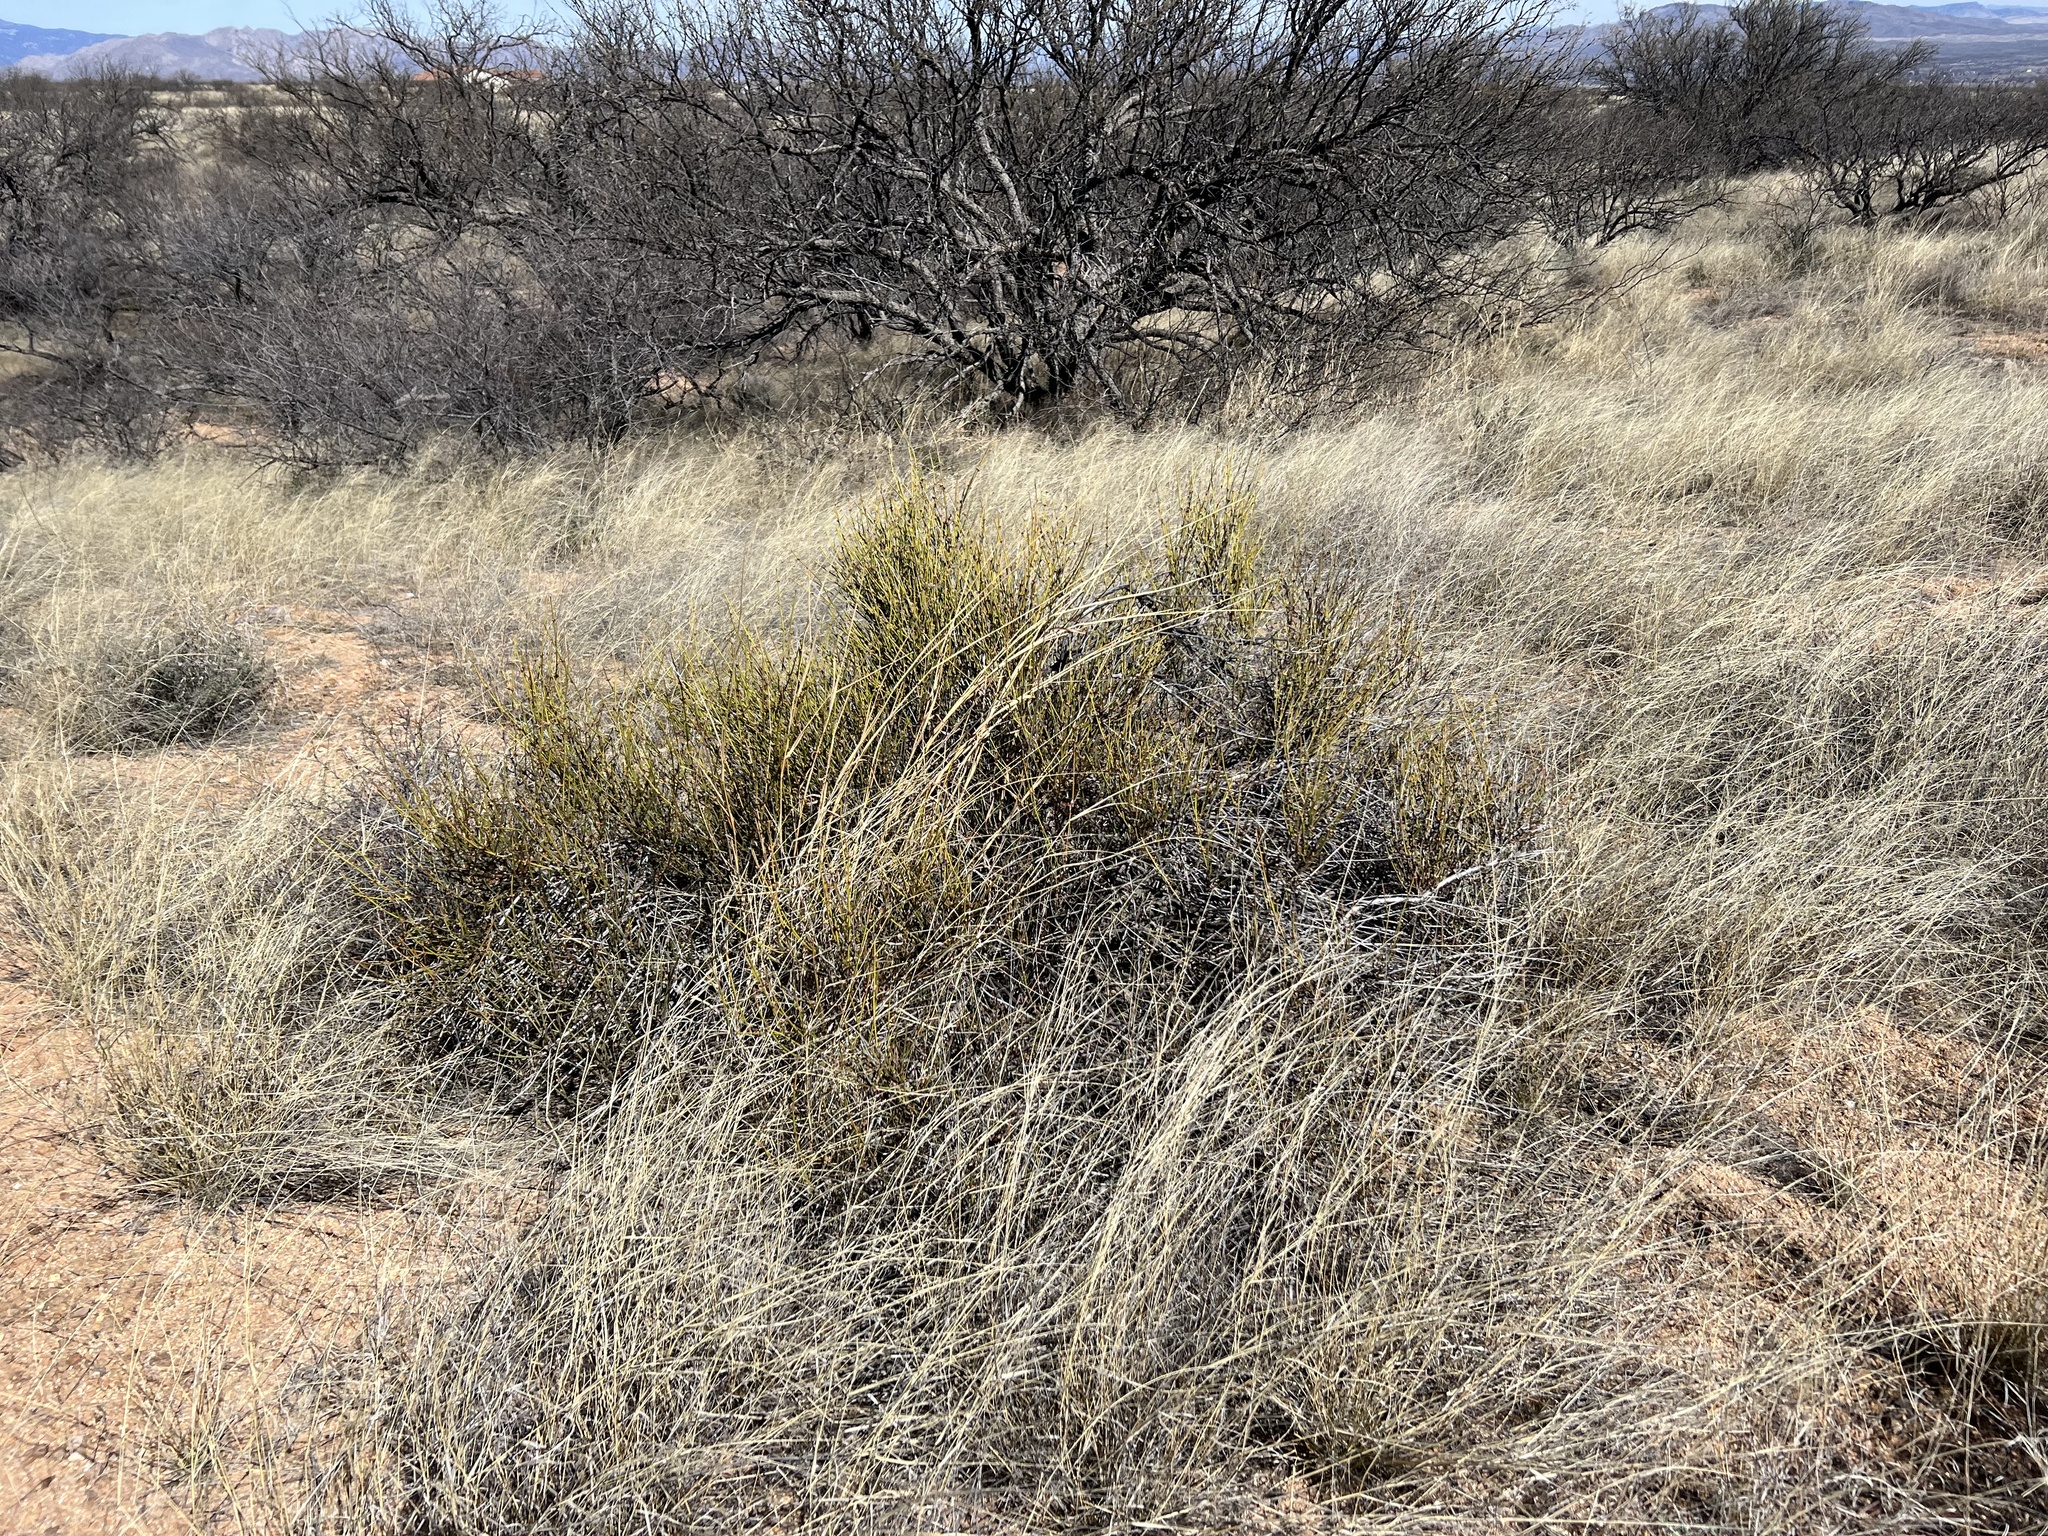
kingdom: Plantae
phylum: Tracheophyta
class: Gnetopsida
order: Ephedrales
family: Ephedraceae
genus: Ephedra
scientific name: Ephedra trifurca
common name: Mexican-tea
